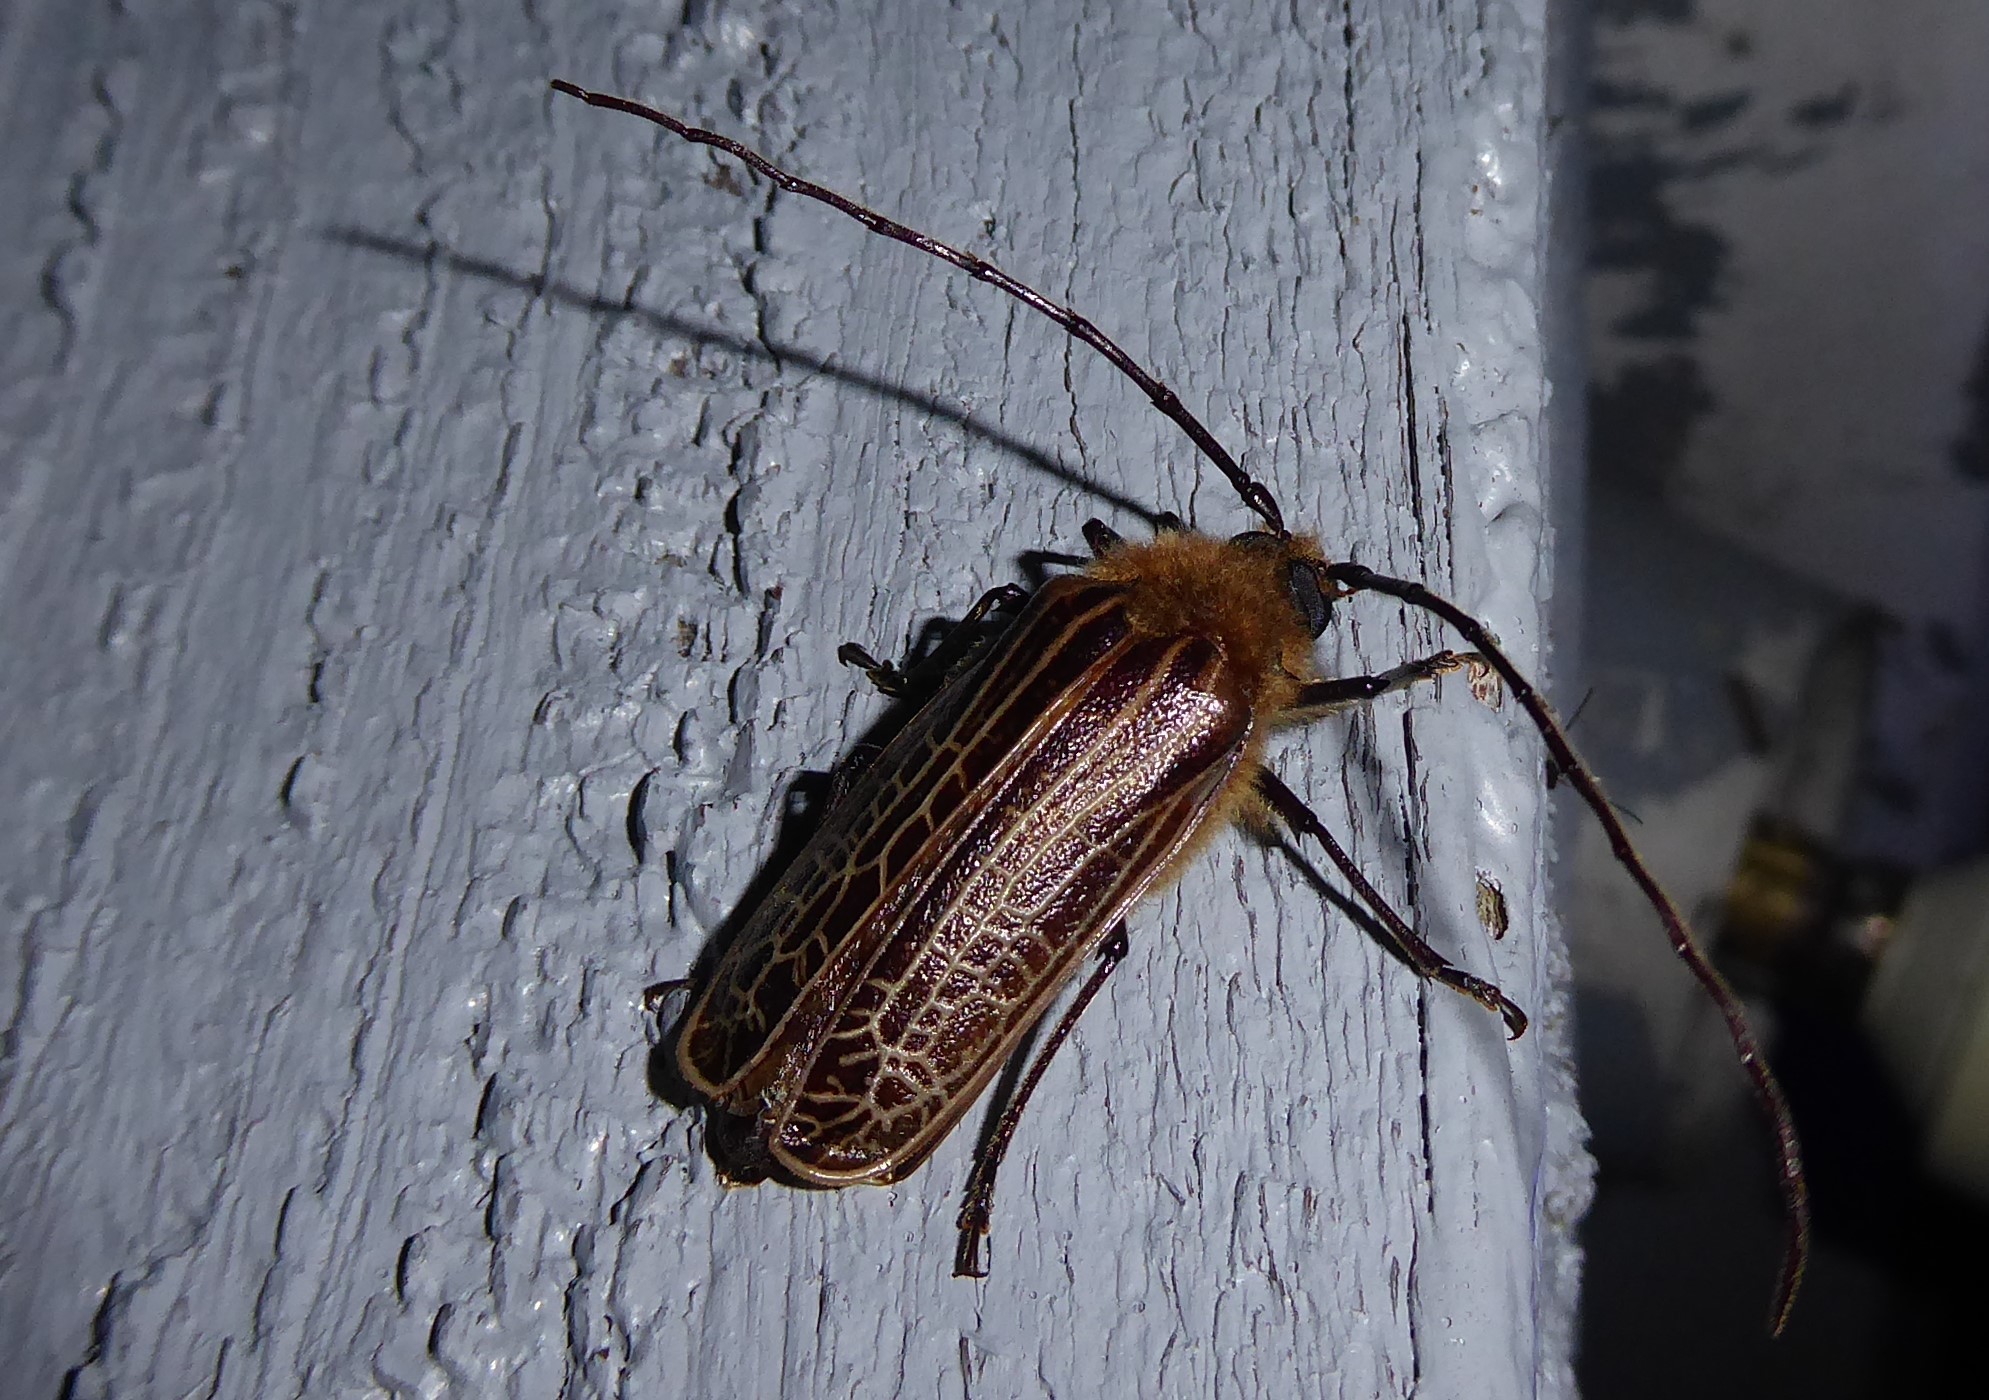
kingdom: Animalia
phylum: Arthropoda
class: Insecta
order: Coleoptera
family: Cerambycidae
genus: Prionoplus
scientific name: Prionoplus reticularis
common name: Huhu beetle
